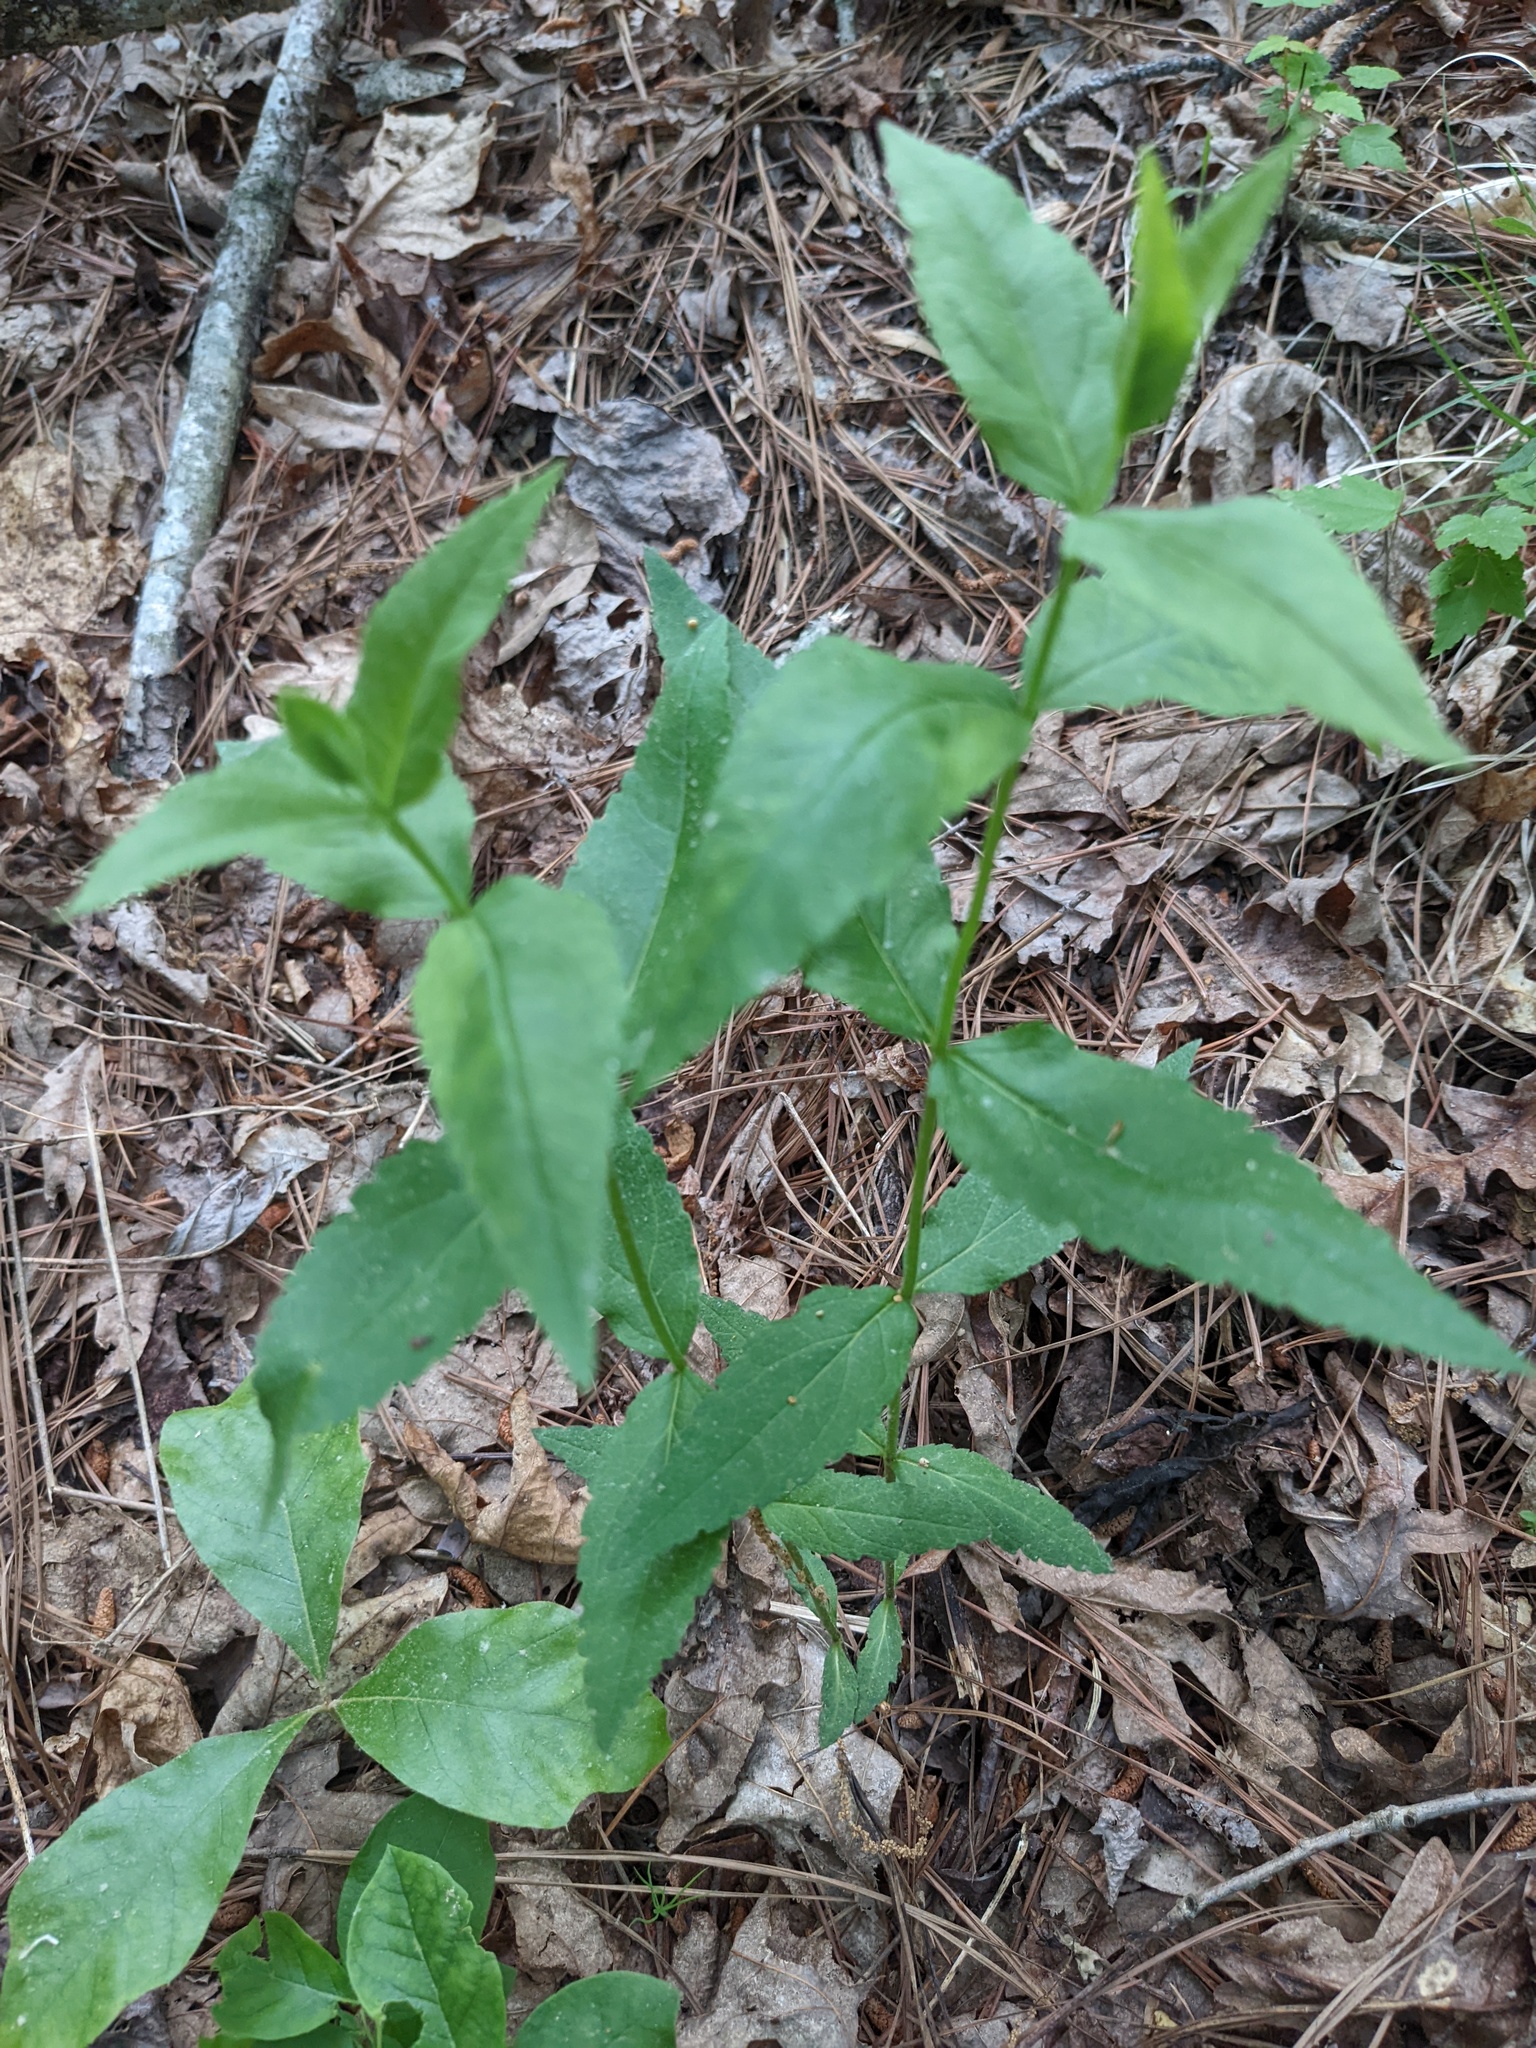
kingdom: Plantae
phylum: Tracheophyta
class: Magnoliopsida
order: Asterales
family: Asteraceae
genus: Eupatorium
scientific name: Eupatorium sessilifolium
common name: Upland boneset
